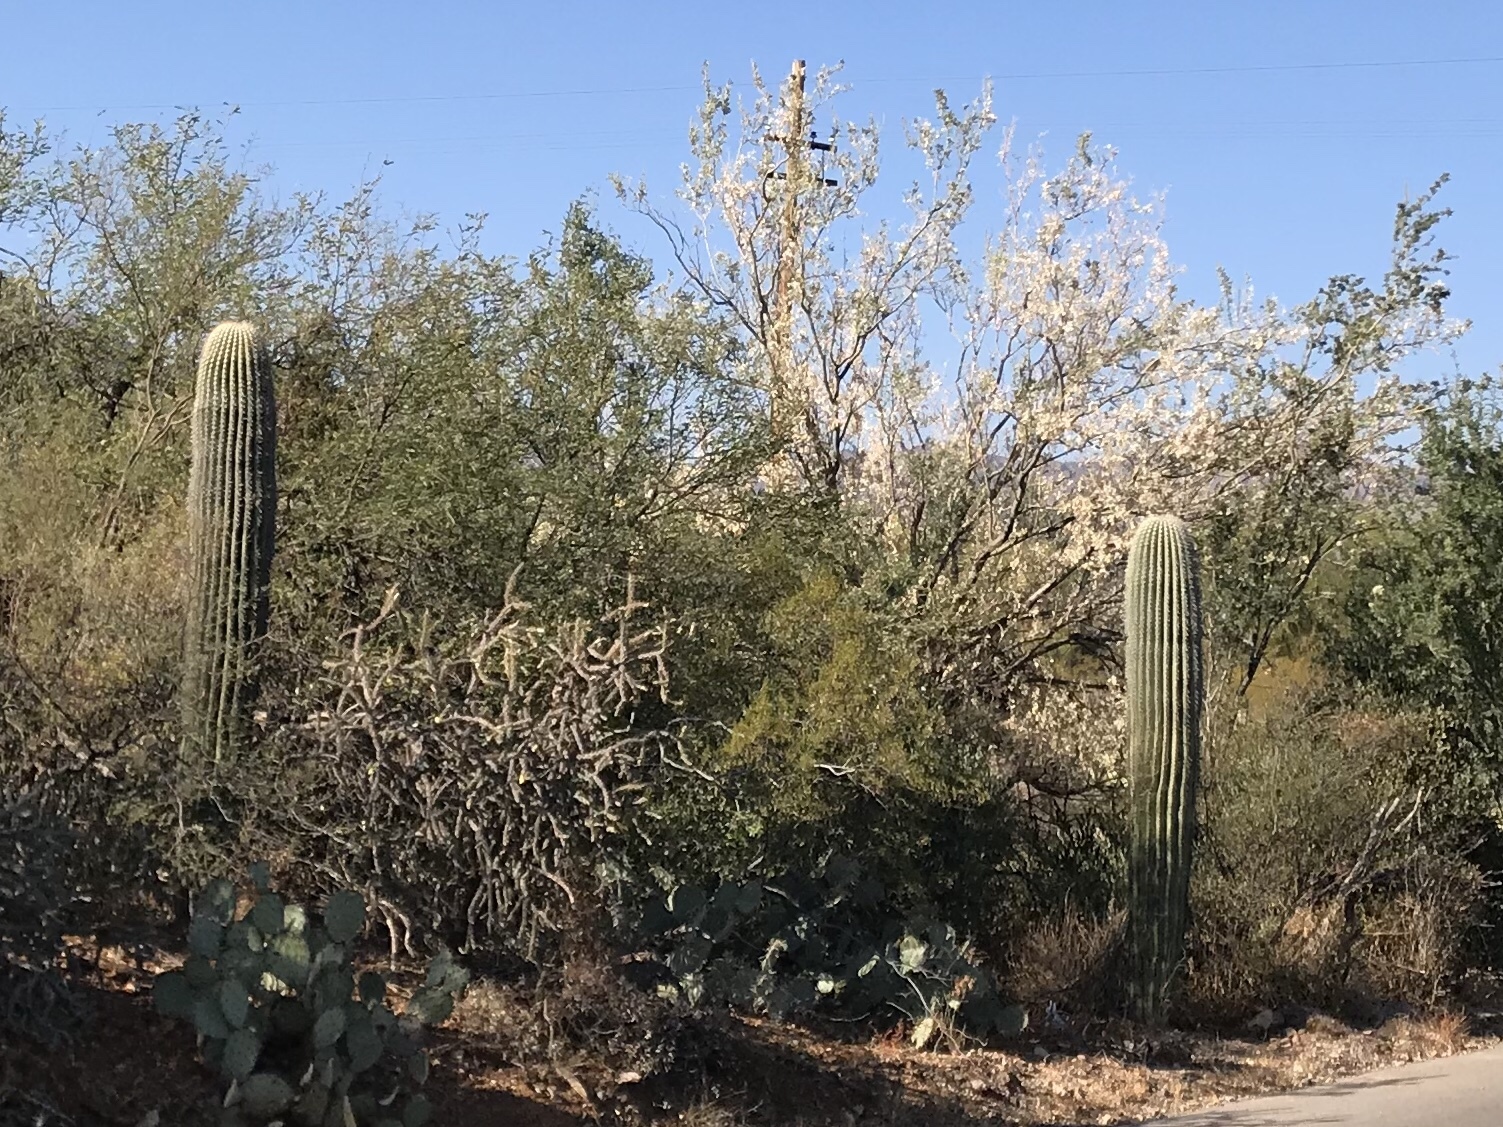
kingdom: Plantae
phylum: Tracheophyta
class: Magnoliopsida
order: Caryophyllales
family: Cactaceae
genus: Carnegiea
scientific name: Carnegiea gigantea
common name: Saguaro
